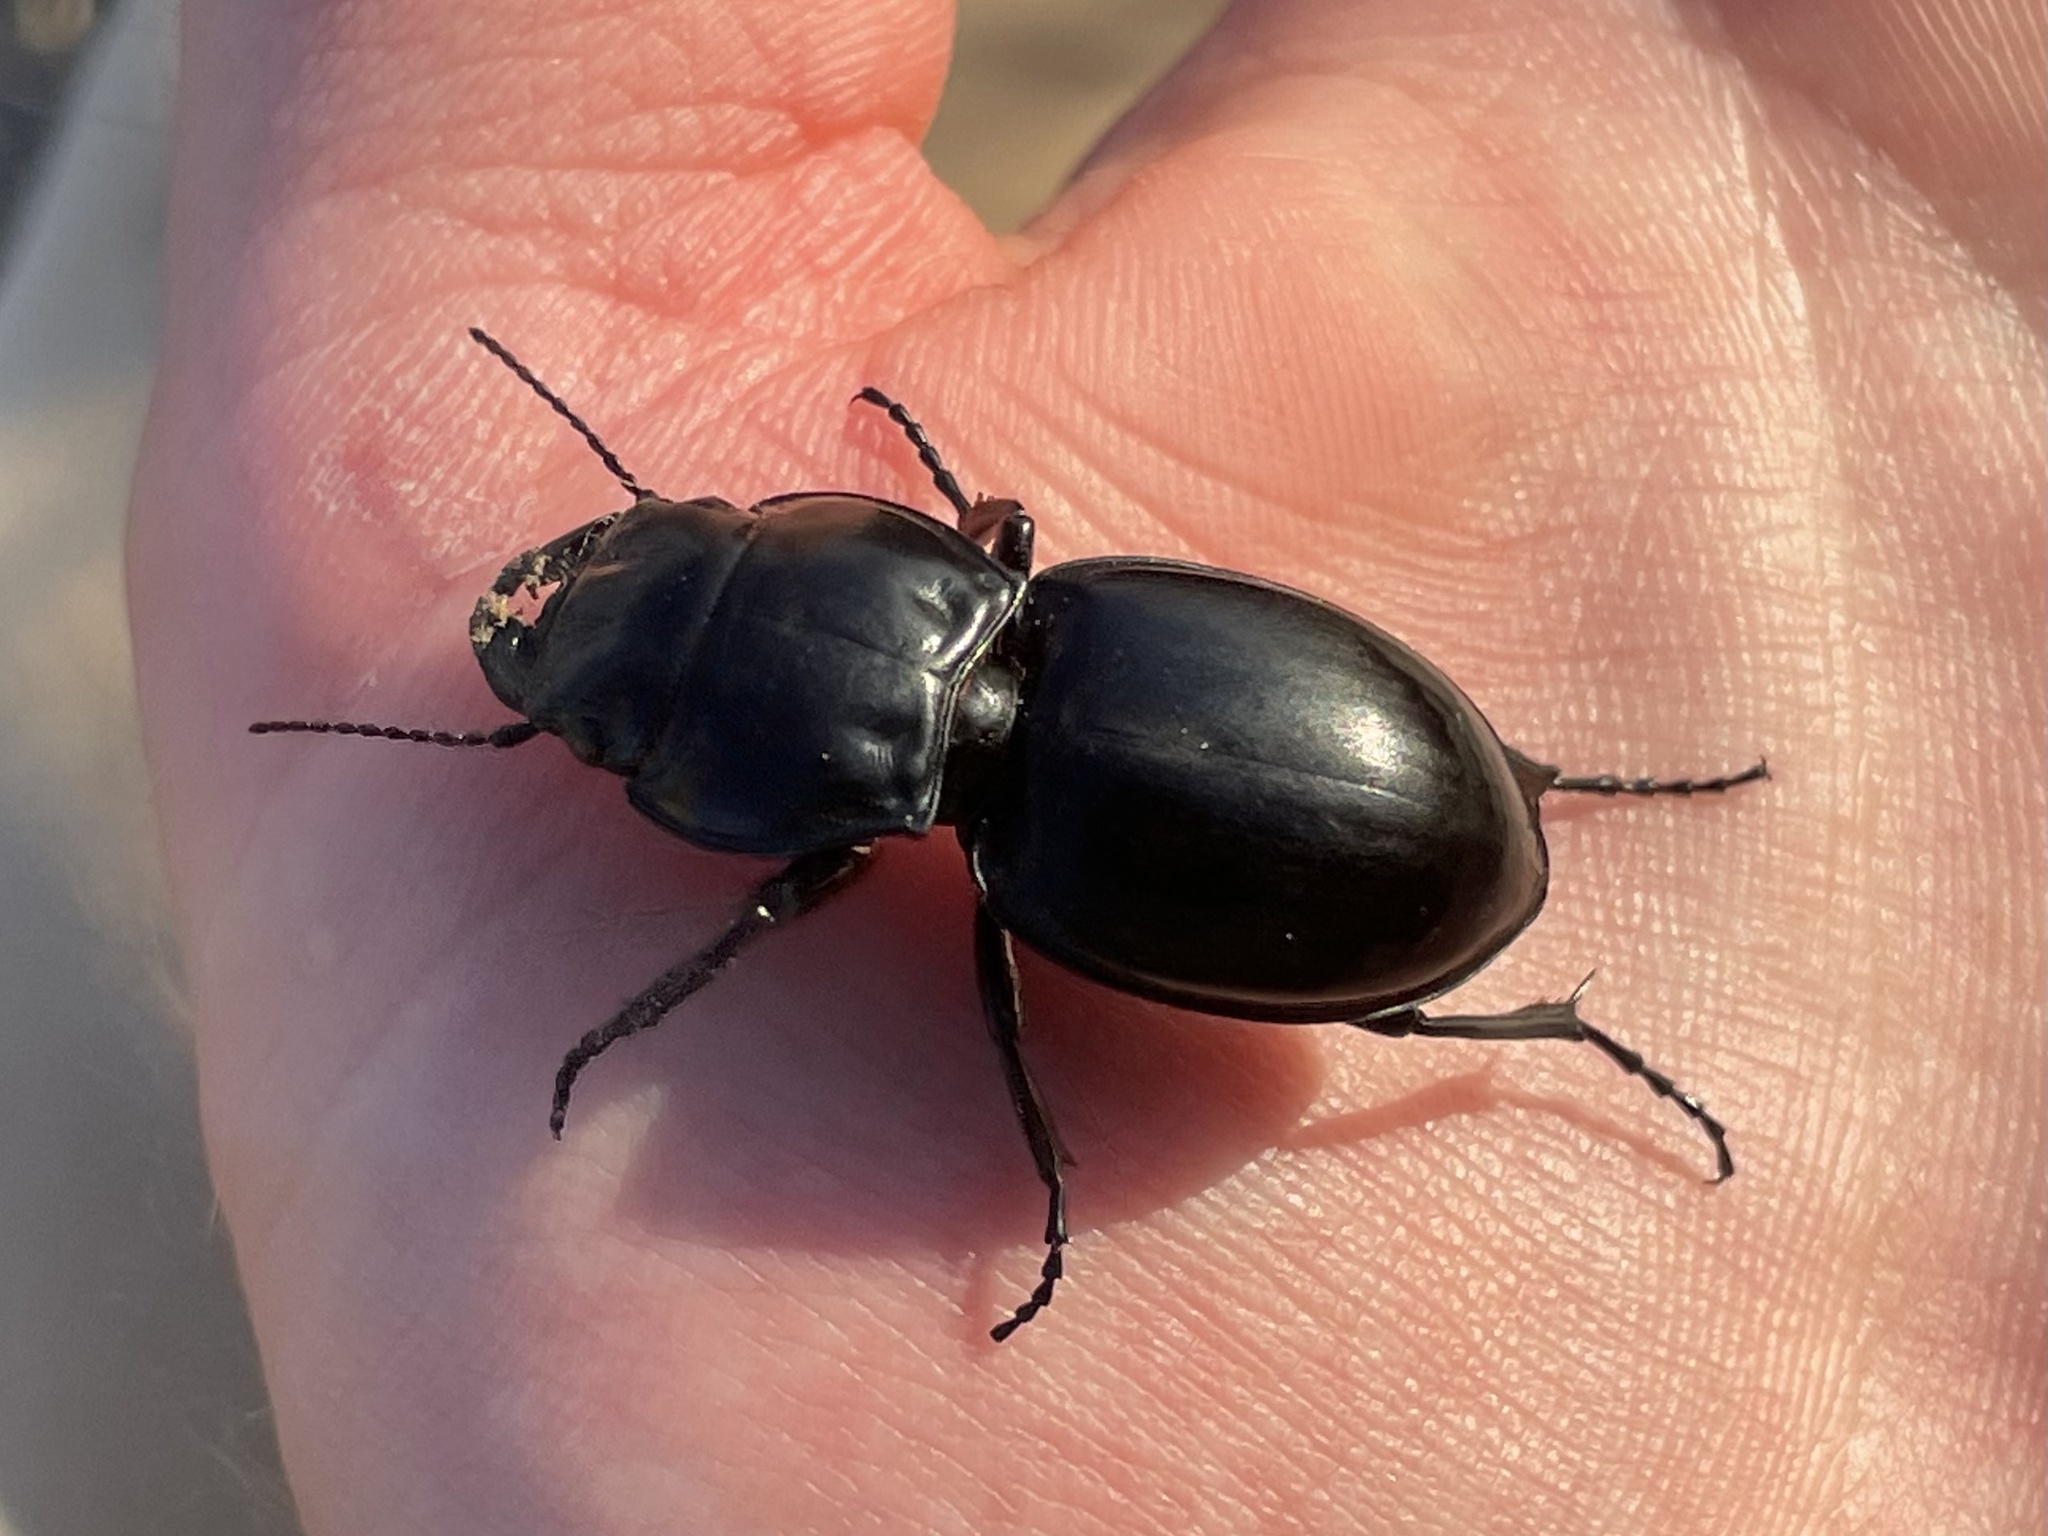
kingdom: Animalia
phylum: Arthropoda
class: Insecta
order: Coleoptera
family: Carabidae
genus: Pasimachus
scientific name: Pasimachus californicus
